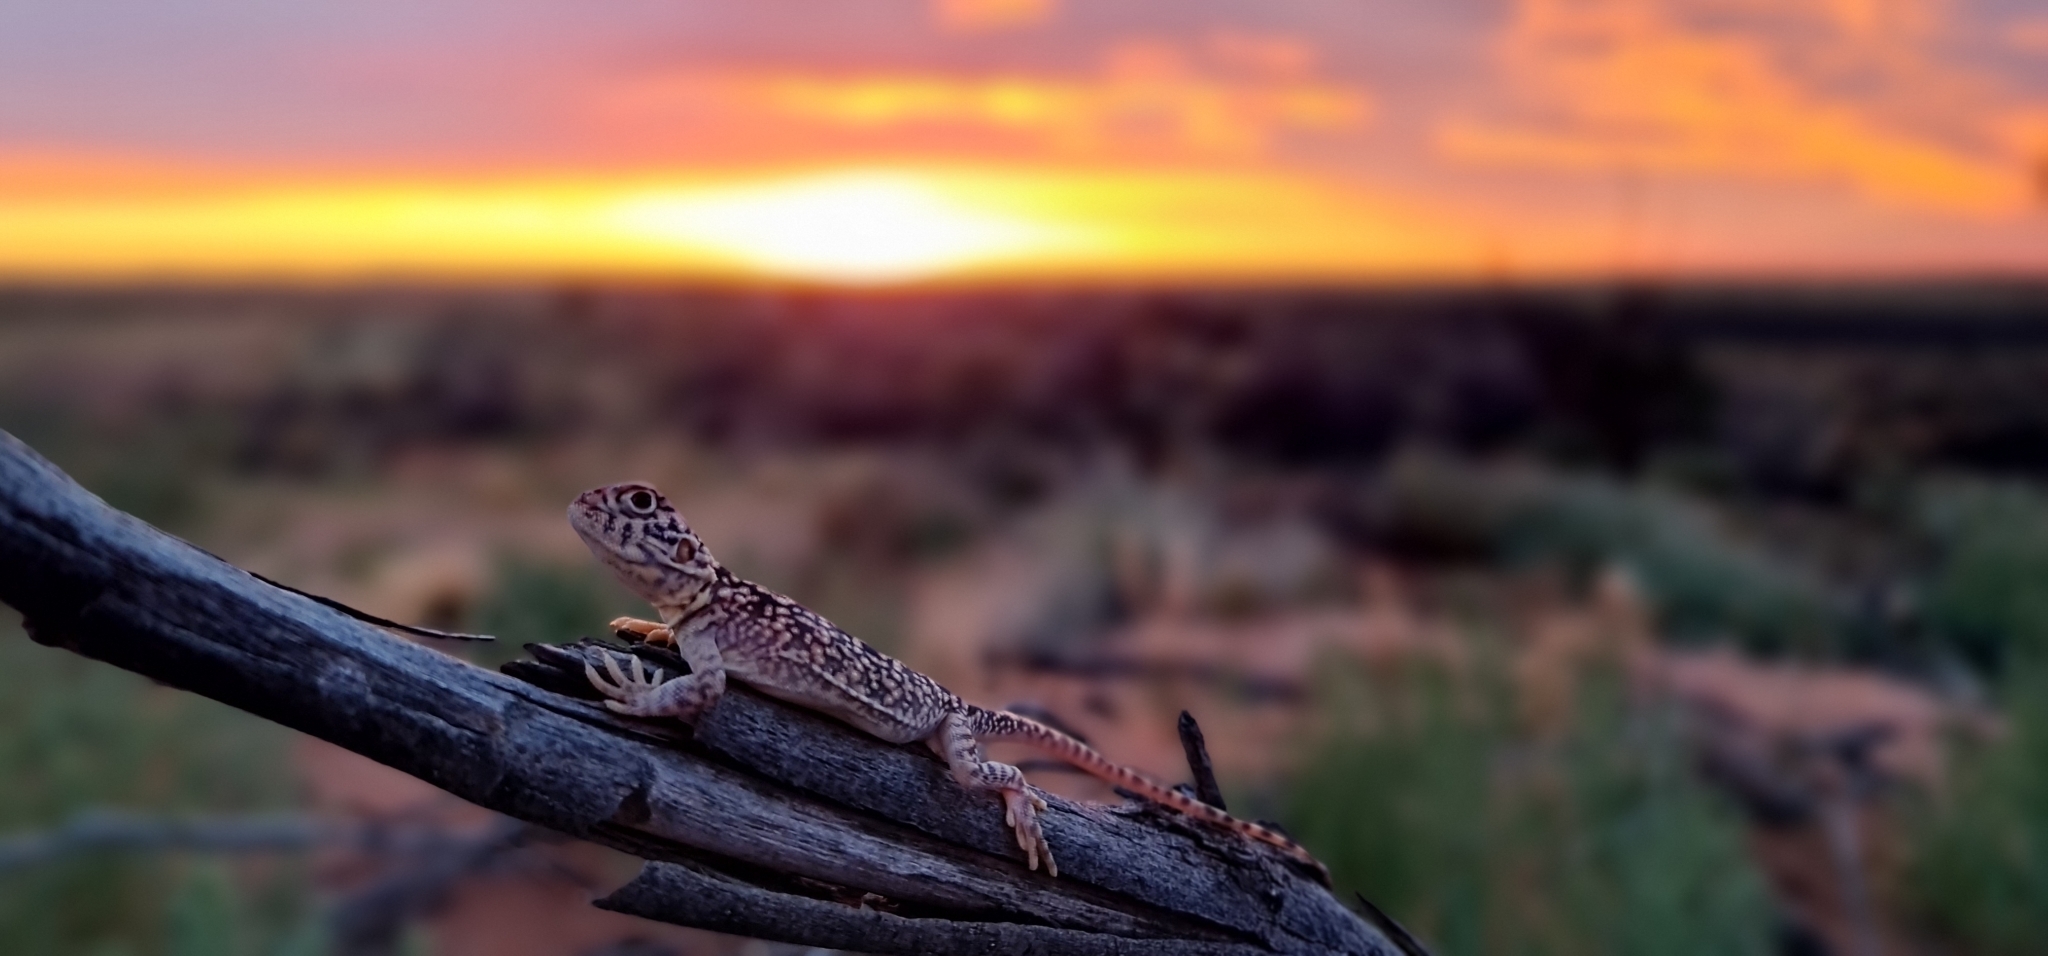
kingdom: Animalia
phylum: Chordata
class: Squamata
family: Agamidae
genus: Ctenophorus
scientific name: Ctenophorus nuchalis
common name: Central netted dragon
